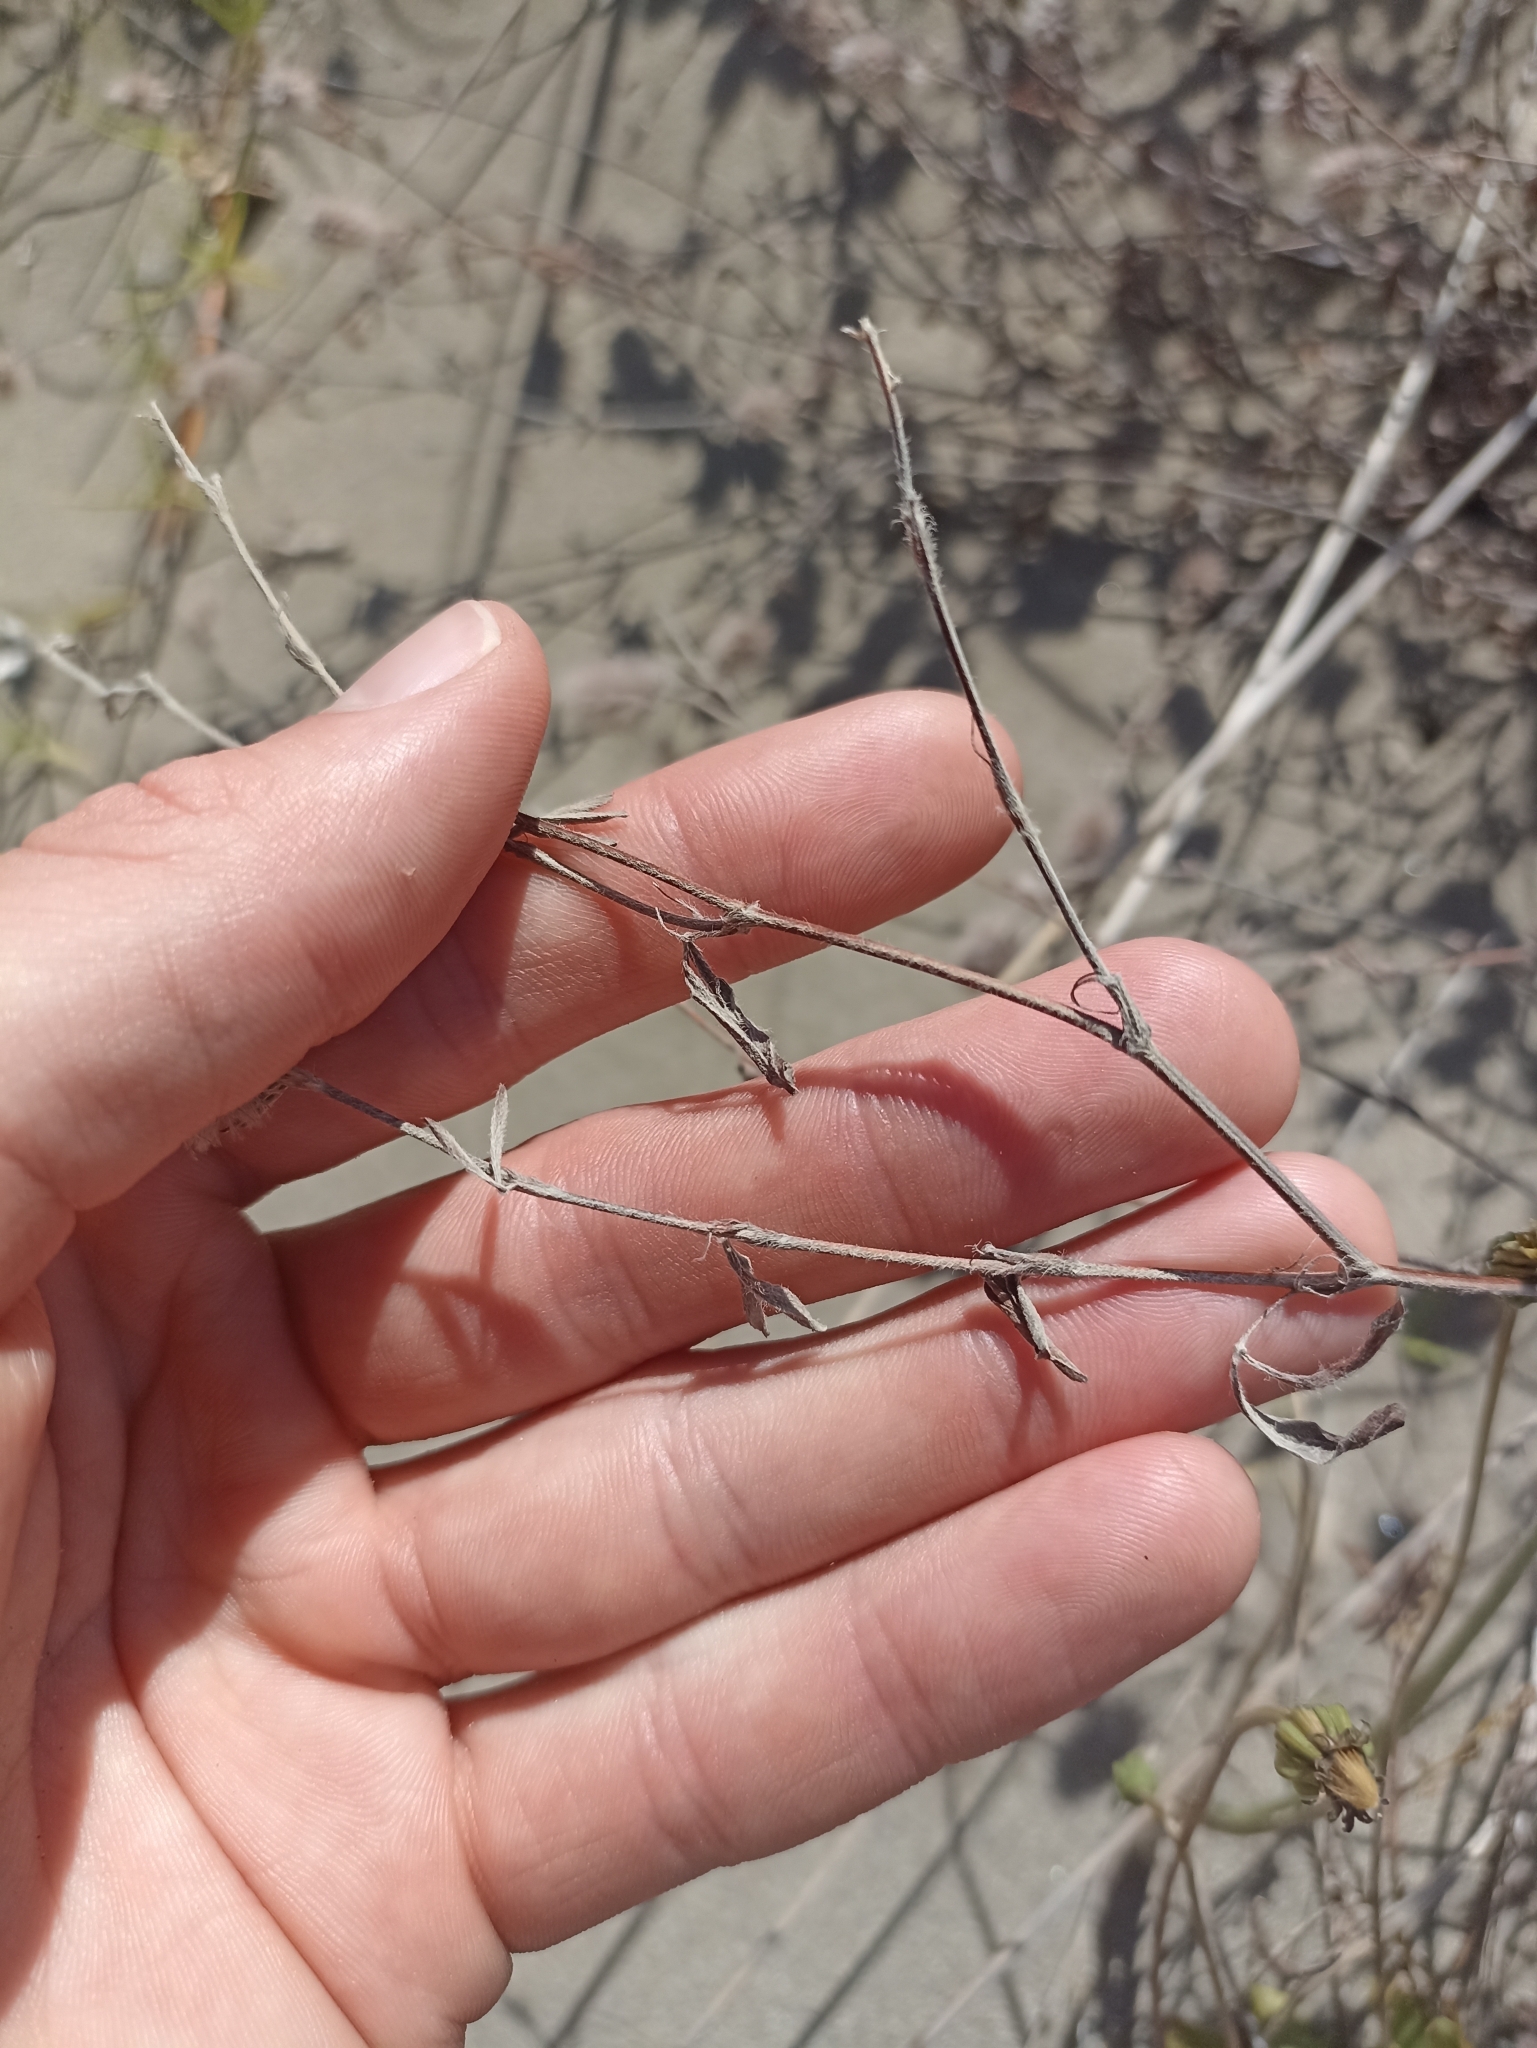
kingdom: Plantae
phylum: Tracheophyta
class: Magnoliopsida
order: Fabales
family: Fabaceae
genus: Trifolium
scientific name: Trifolium arvense
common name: Hare's-foot clover
